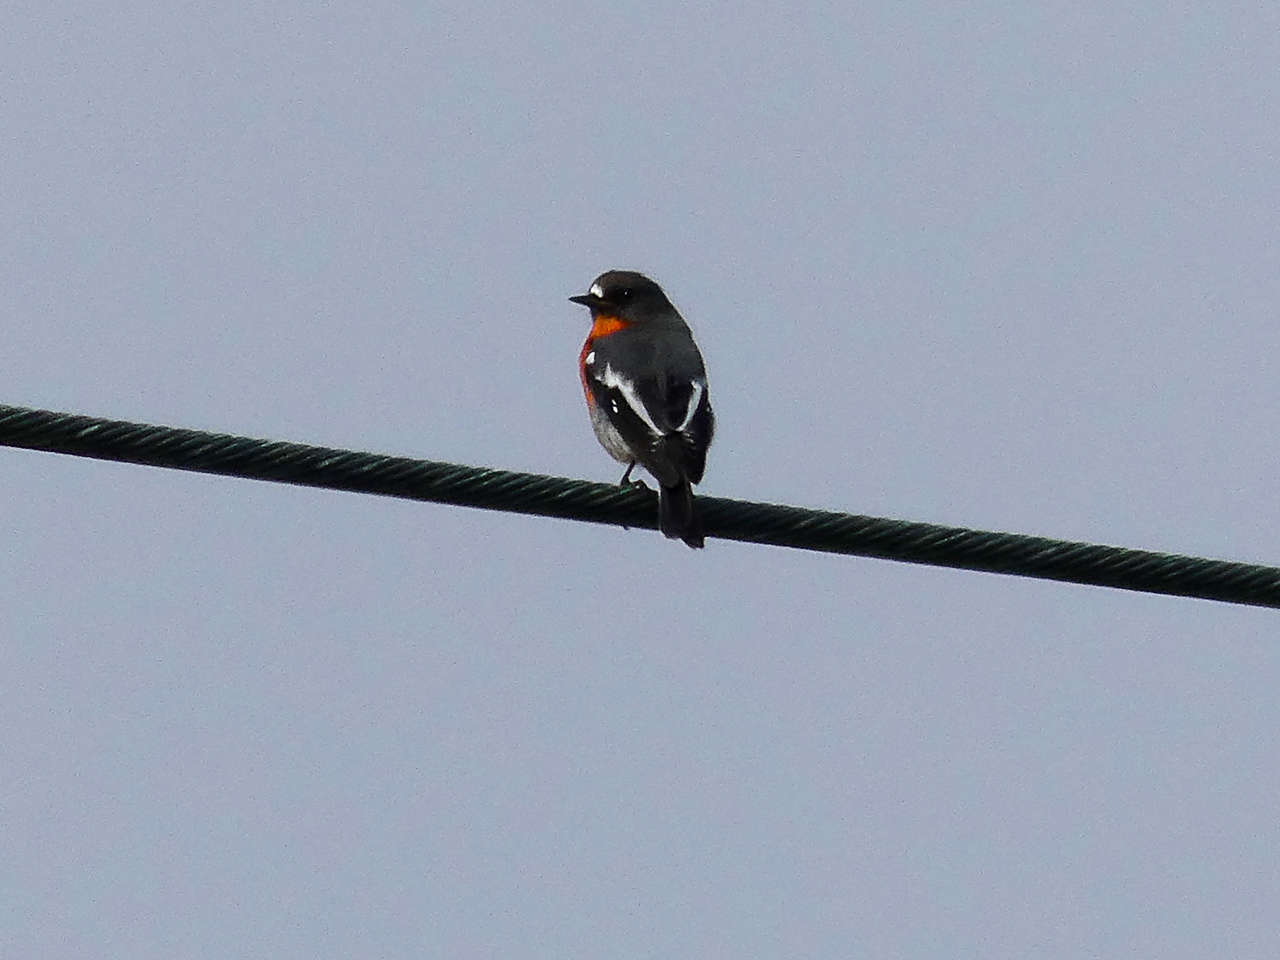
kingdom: Animalia
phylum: Chordata
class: Aves
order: Passeriformes
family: Petroicidae
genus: Petroica
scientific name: Petroica phoenicea
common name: Flame robin
